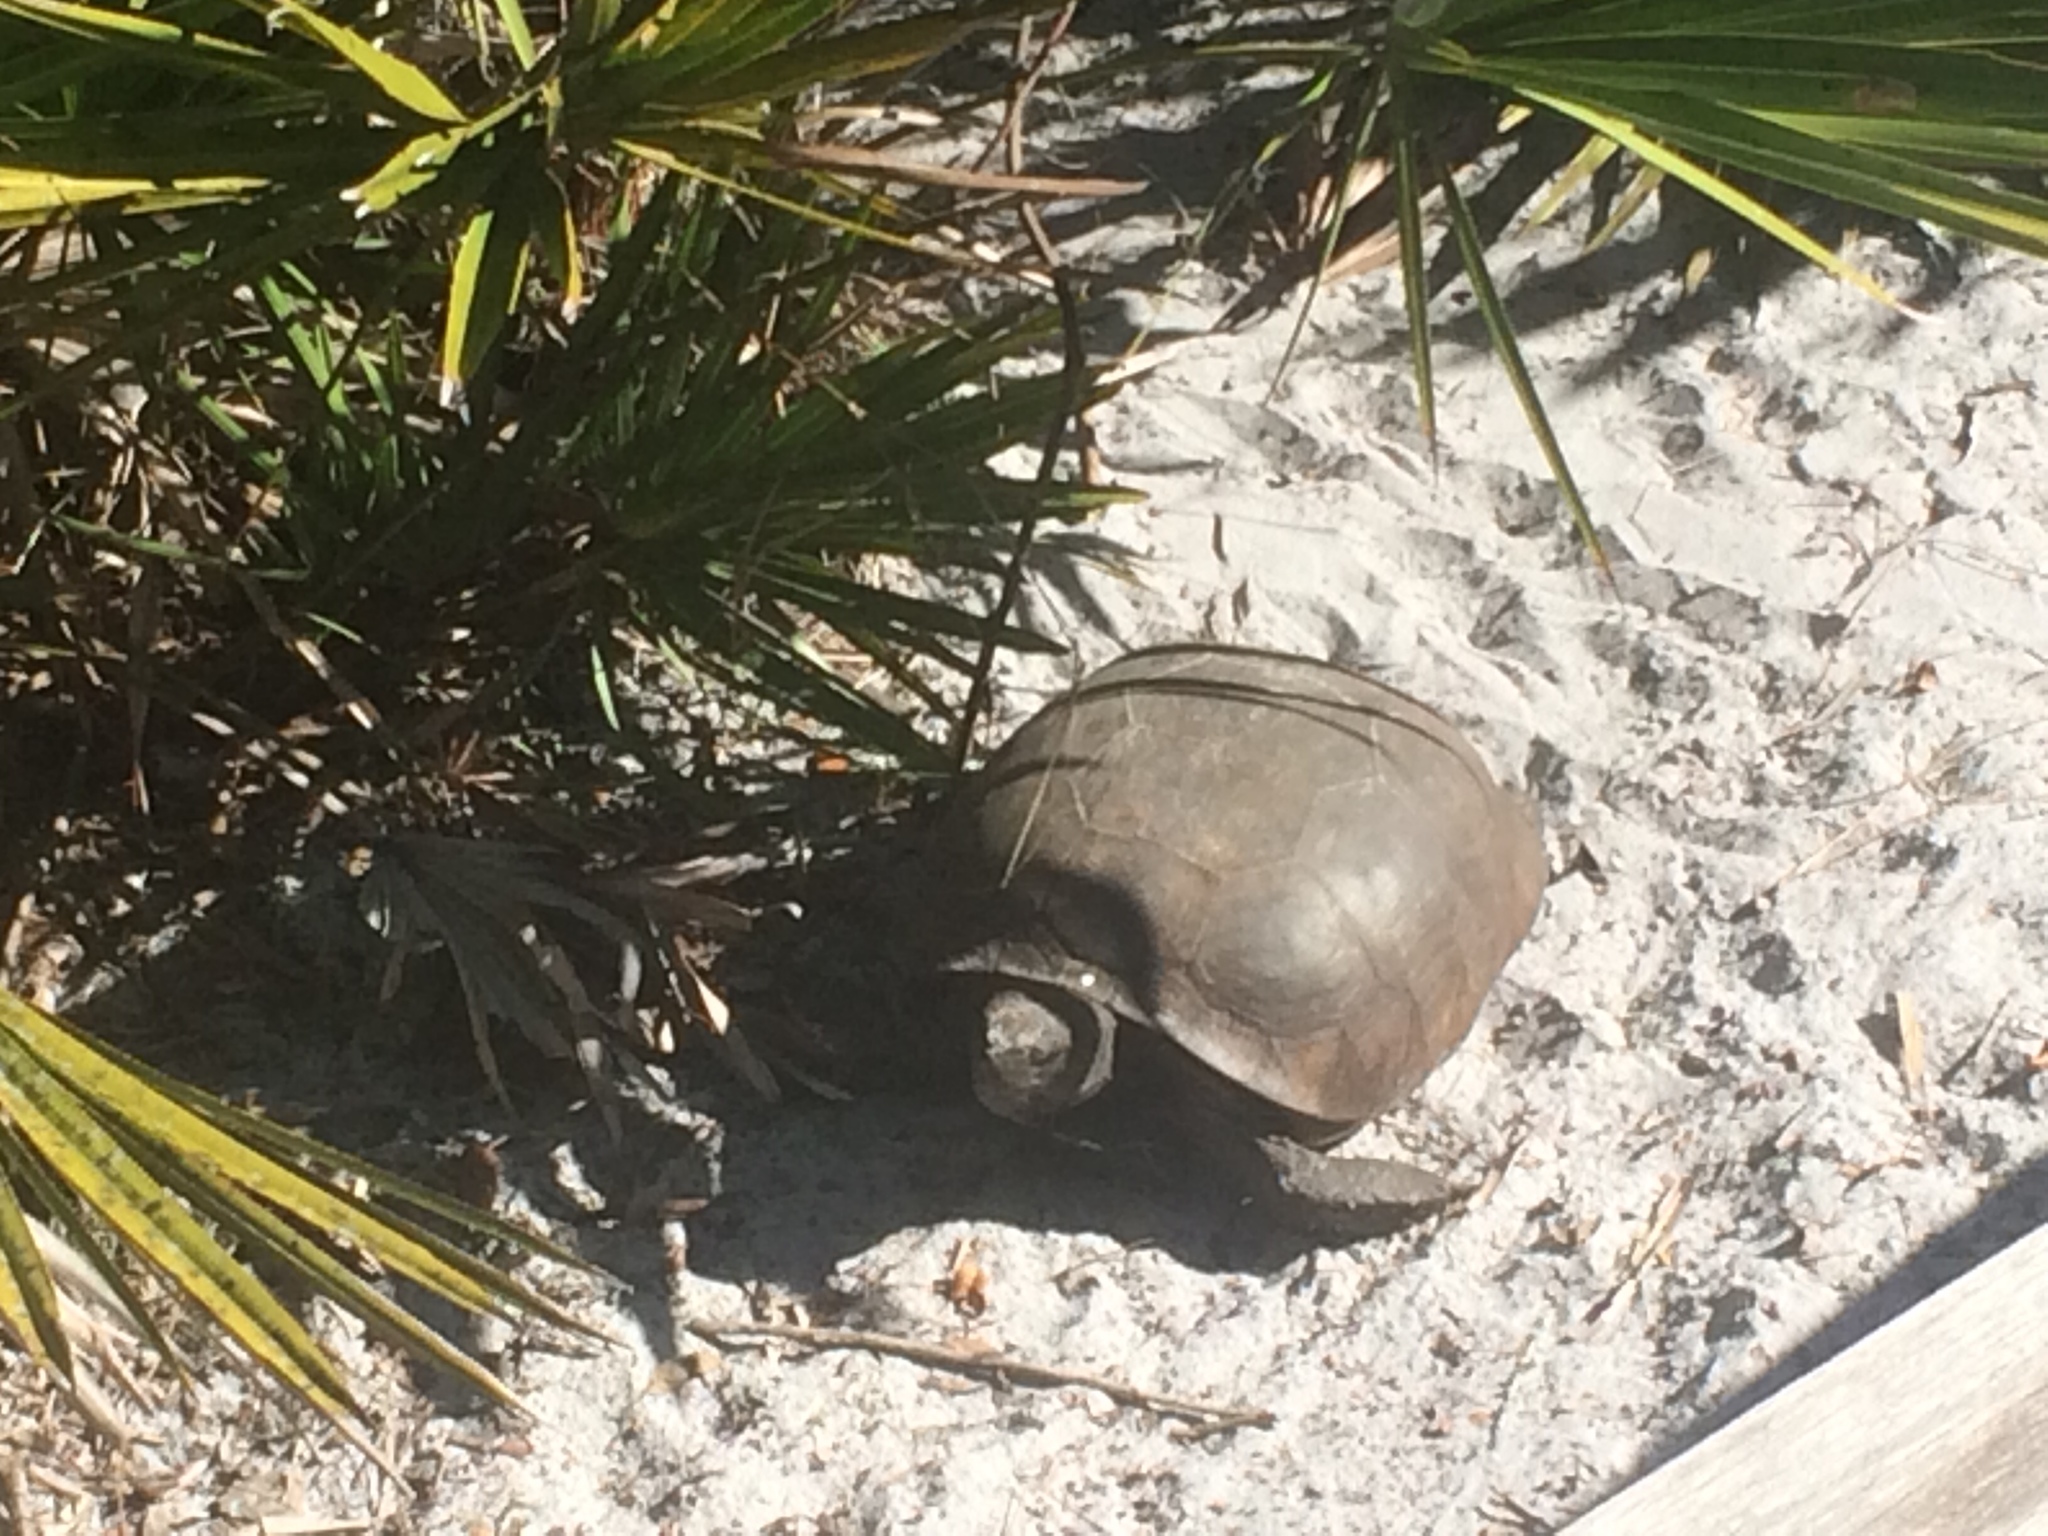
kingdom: Animalia
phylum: Chordata
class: Testudines
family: Testudinidae
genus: Gopherus
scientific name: Gopherus polyphemus
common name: Florida gopher tortoise
